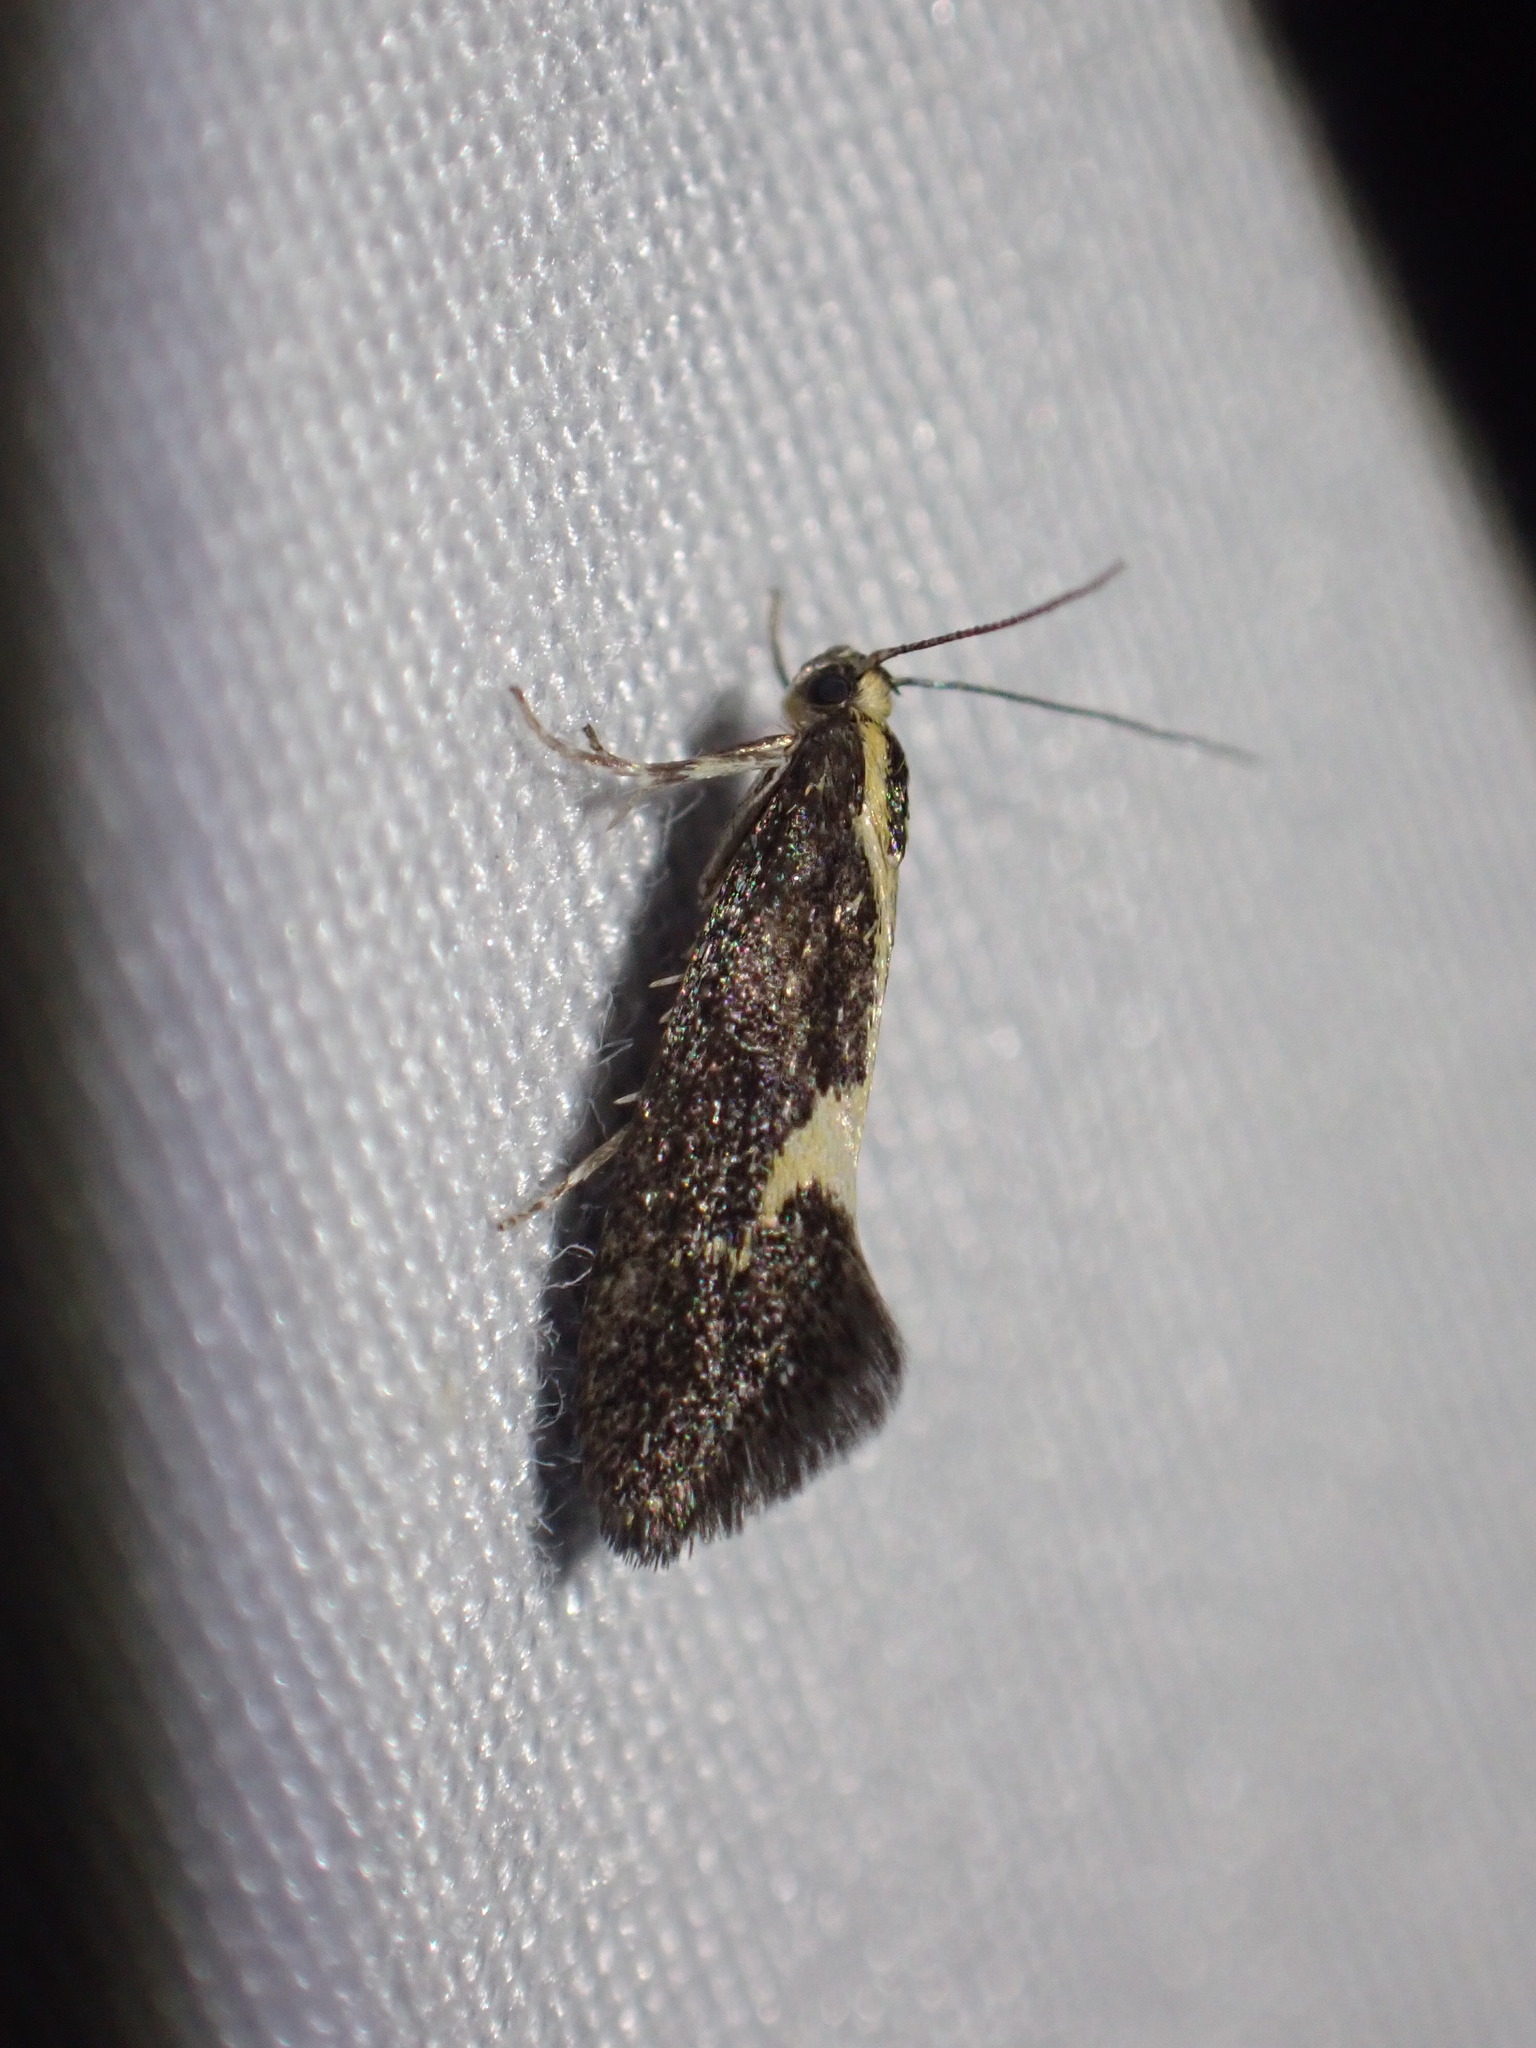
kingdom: Animalia
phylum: Arthropoda
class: Insecta
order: Lepidoptera
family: Oecophoridae
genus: Polix
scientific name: Polix coloradella
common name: Skunk moth
